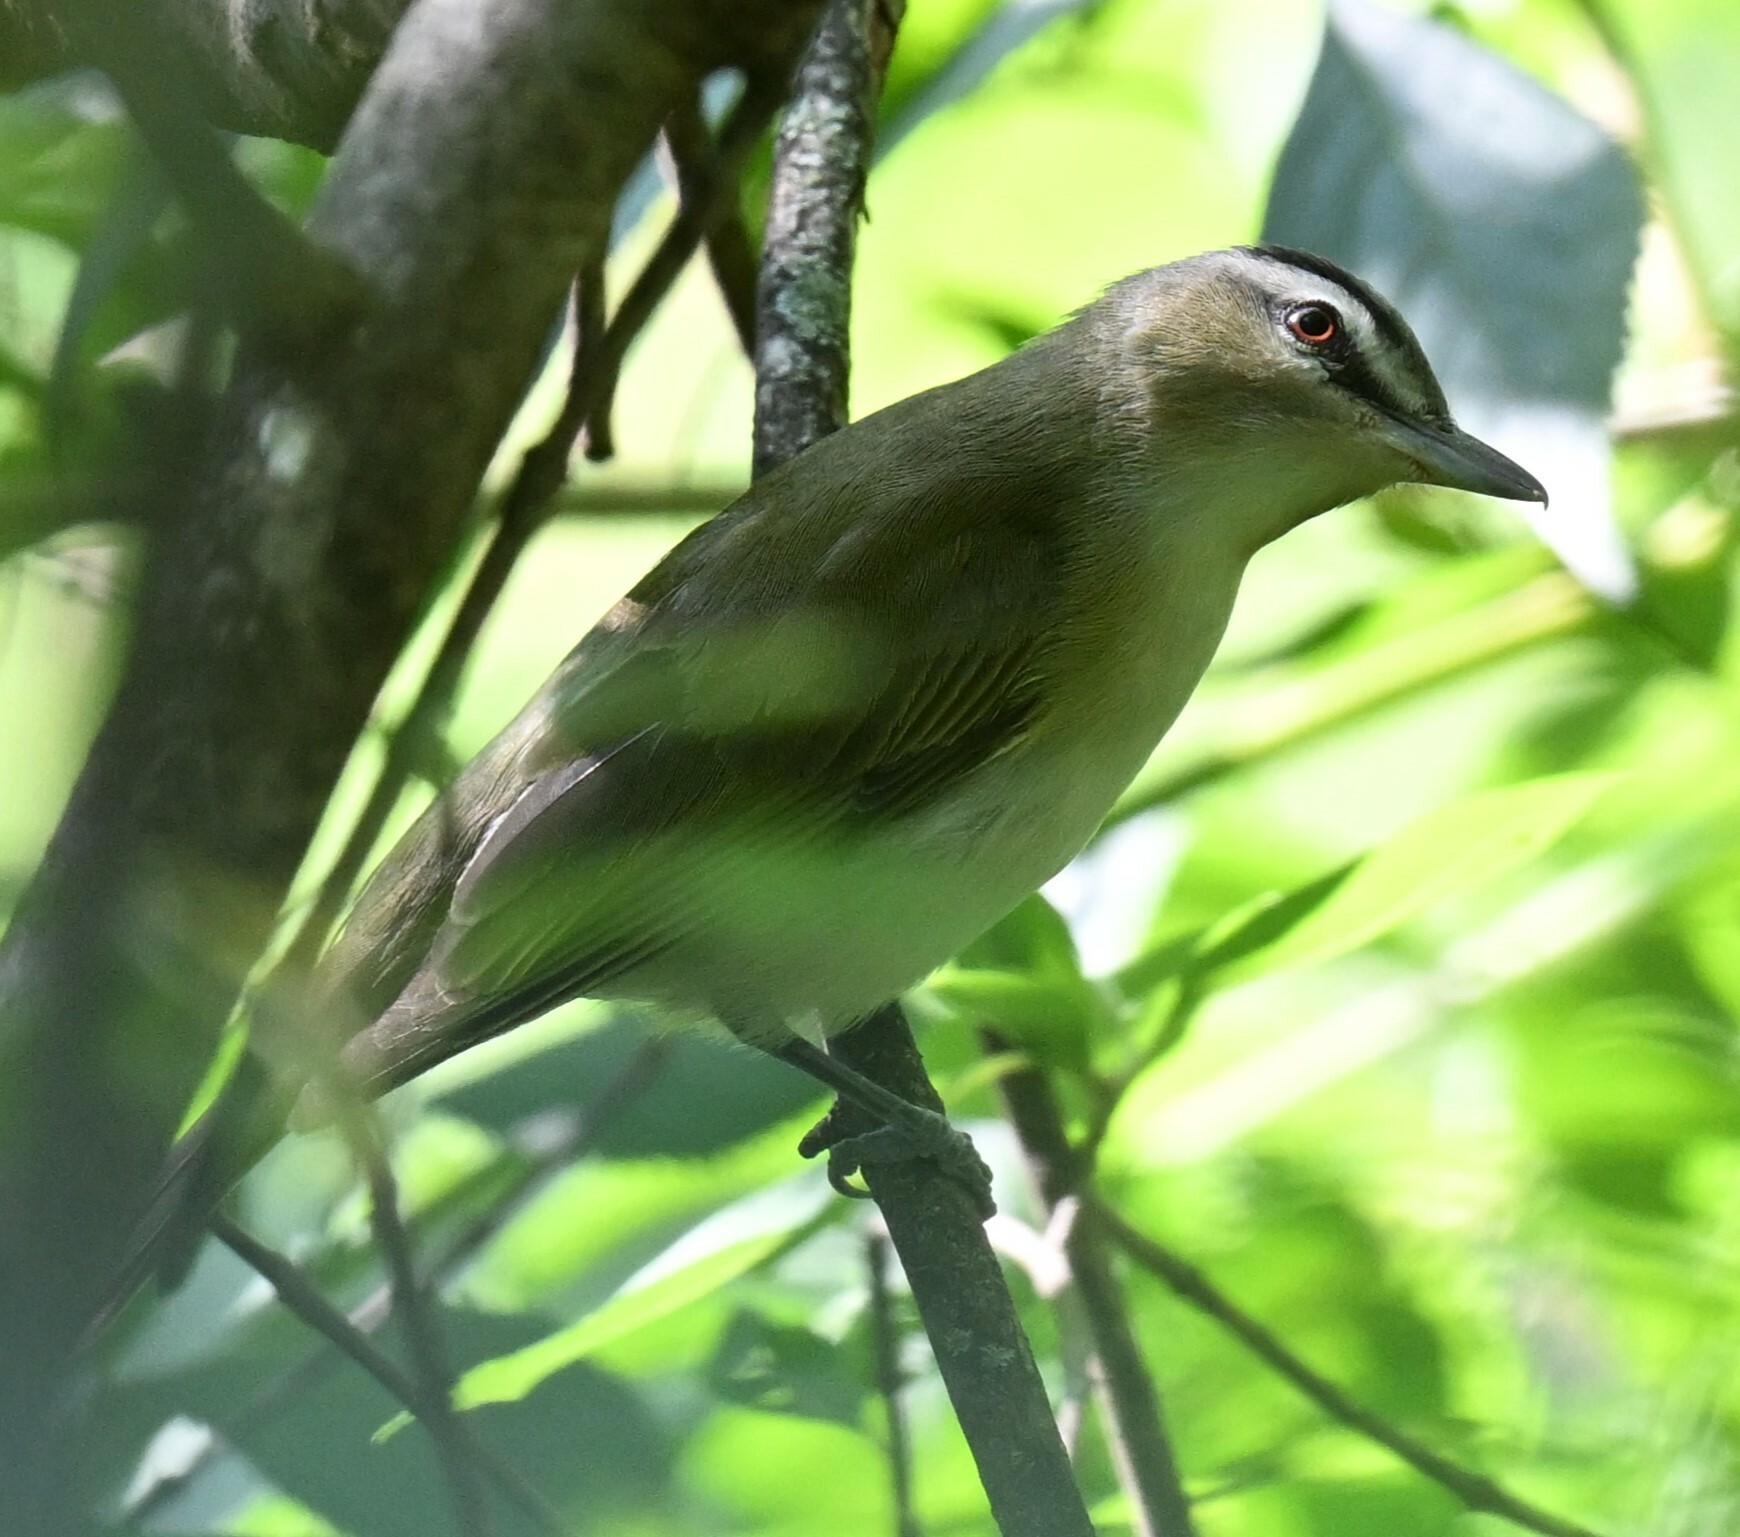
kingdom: Animalia
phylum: Chordata
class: Aves
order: Passeriformes
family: Vireonidae
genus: Vireo
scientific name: Vireo olivaceus
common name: Red-eyed vireo
